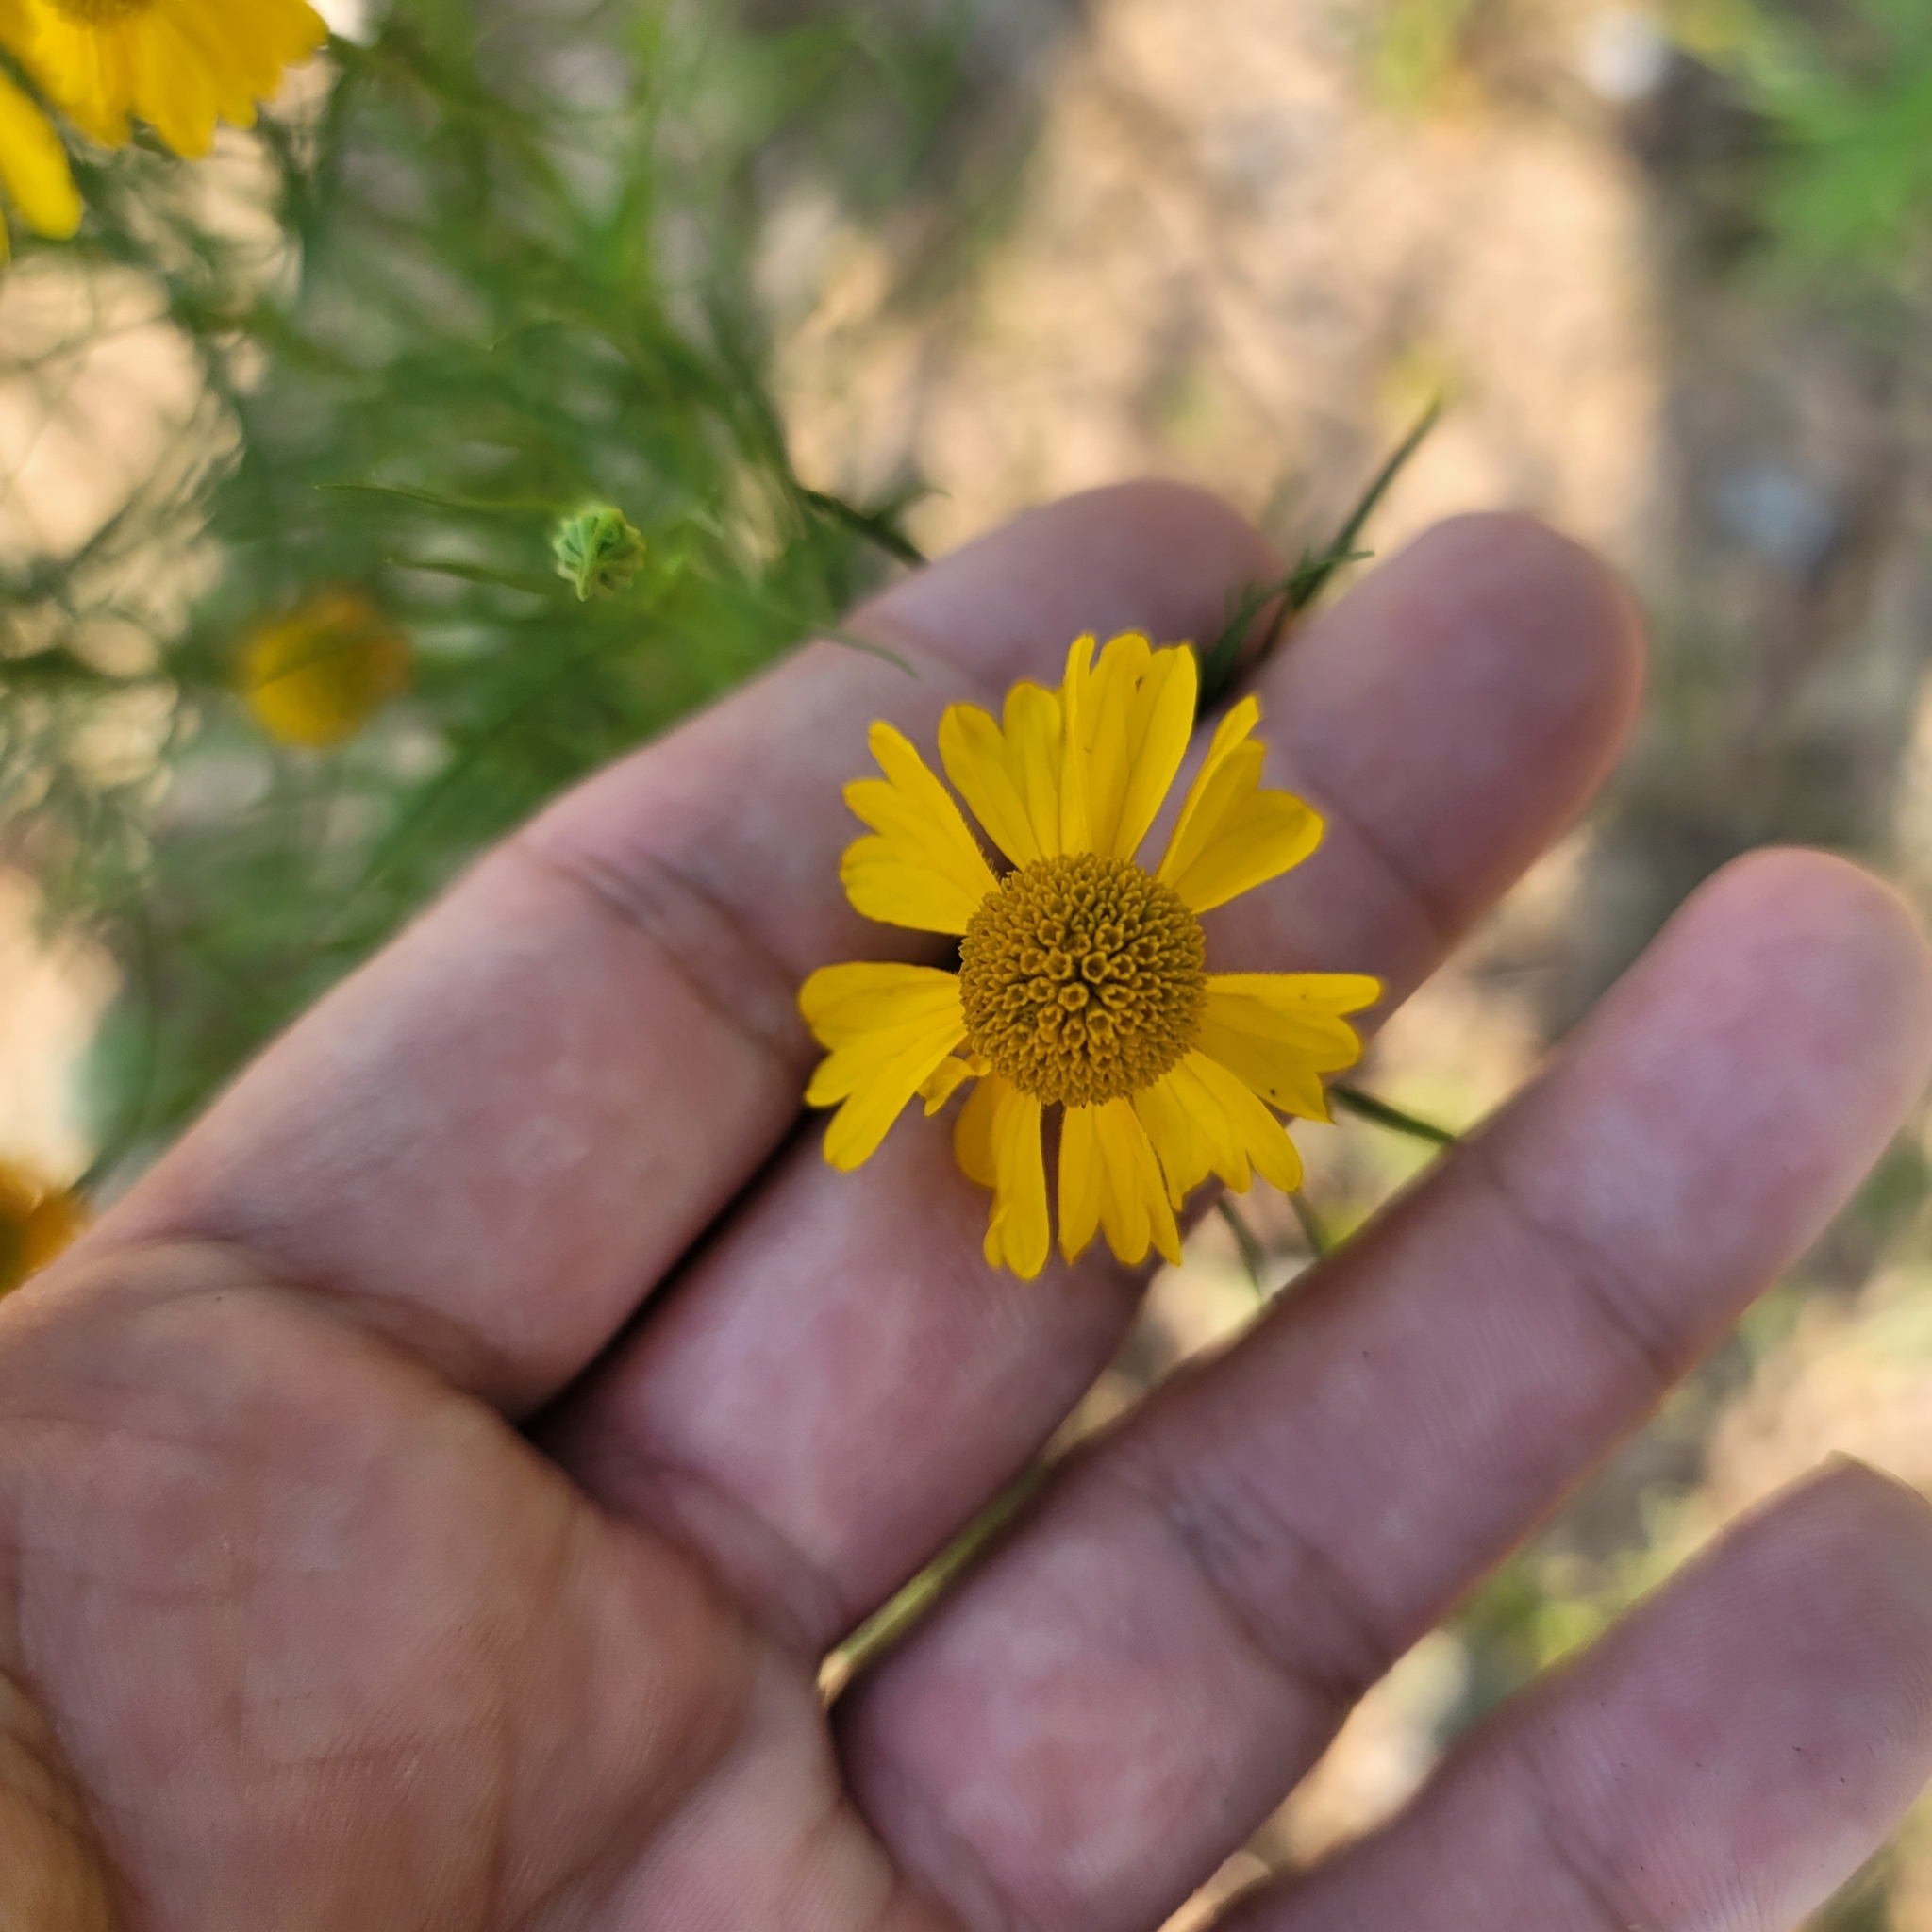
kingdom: Plantae
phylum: Tracheophyta
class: Magnoliopsida
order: Asterales
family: Asteraceae
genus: Helenium
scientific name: Helenium amarum
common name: Bitter sneezeweed
